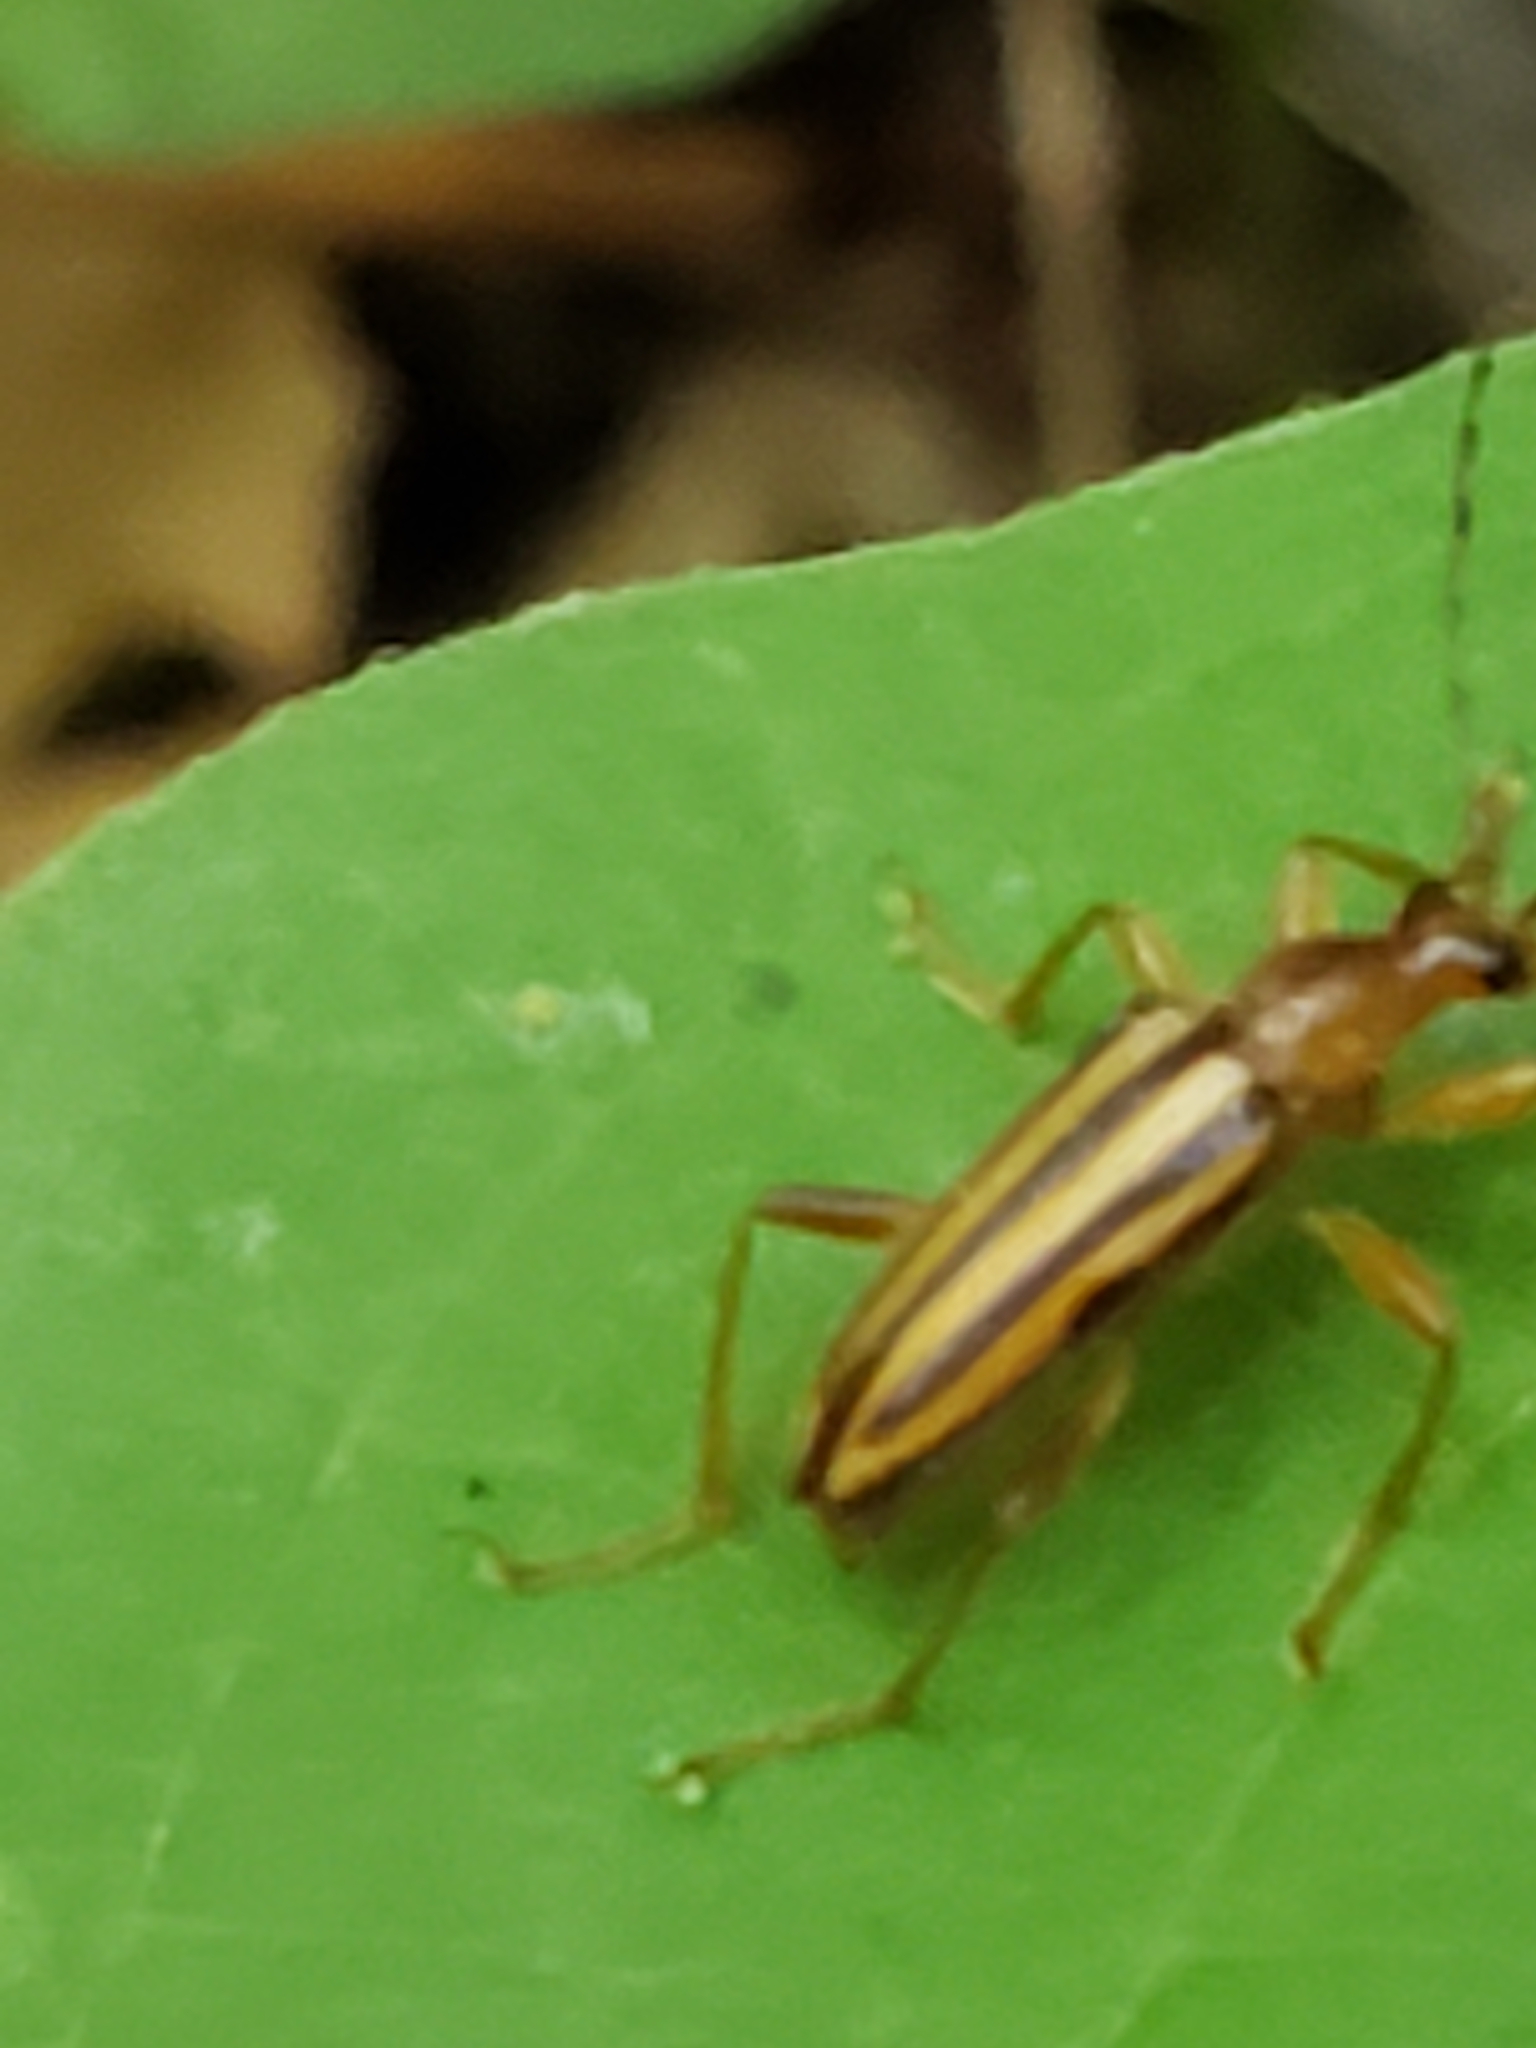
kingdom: Animalia
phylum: Arthropoda
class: Insecta
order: Coleoptera
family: Cerambycidae
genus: Metacmaeops
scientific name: Metacmaeops vittata
